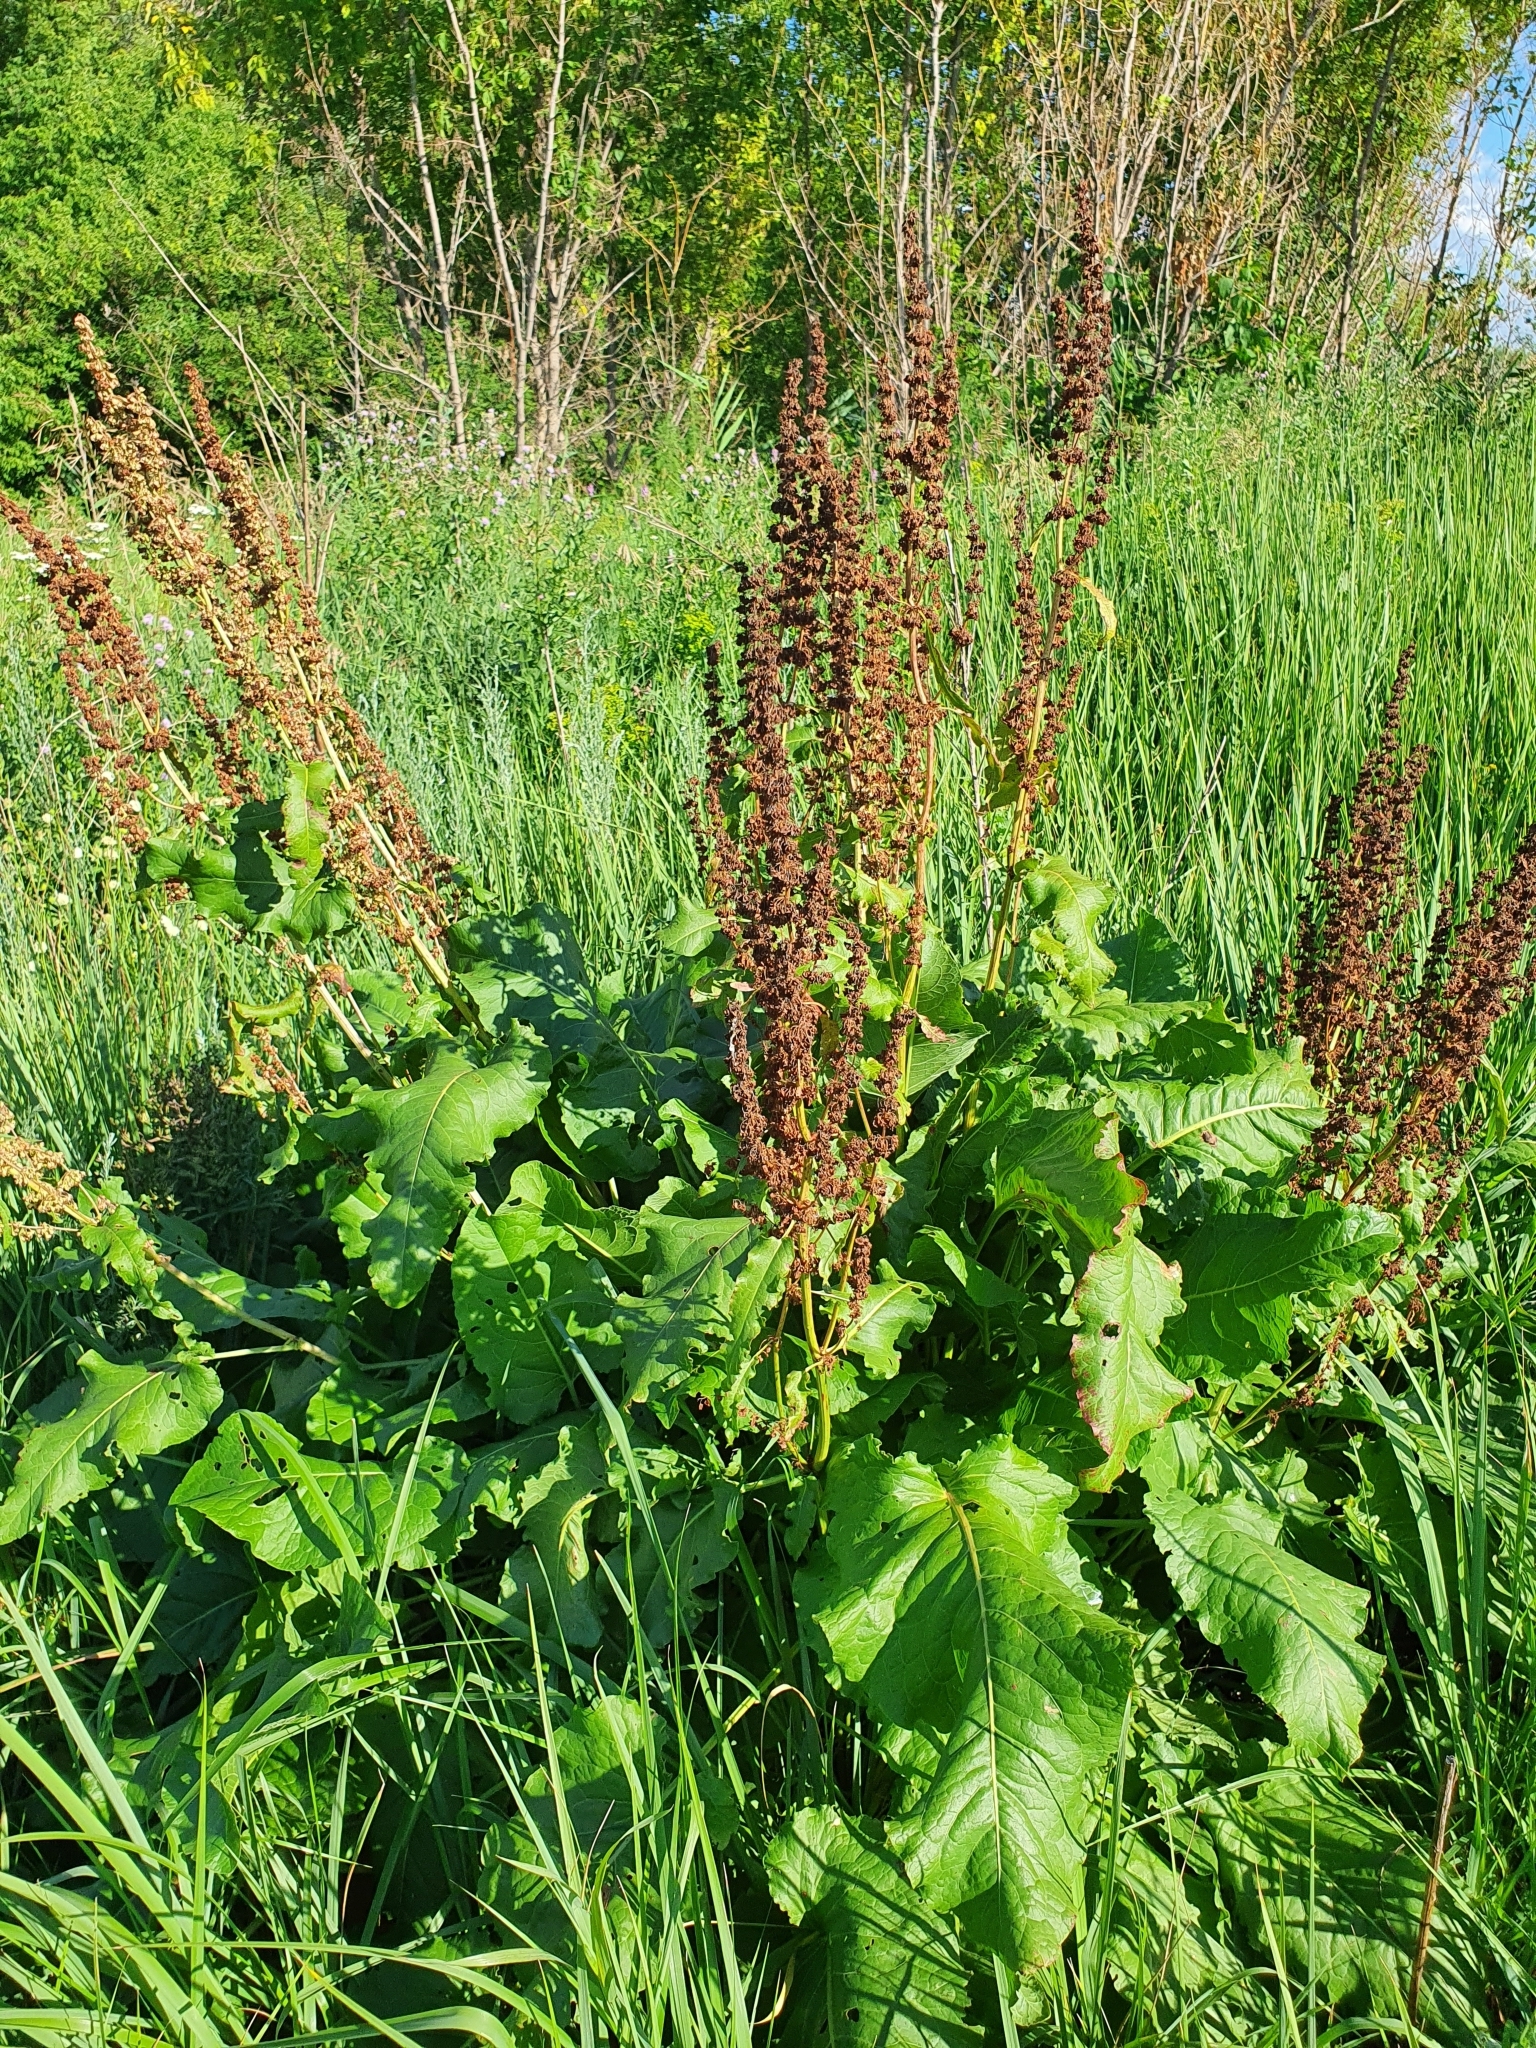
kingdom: Plantae
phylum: Tracheophyta
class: Magnoliopsida
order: Caryophyllales
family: Polygonaceae
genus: Rumex
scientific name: Rumex confertus
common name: Russian dock
